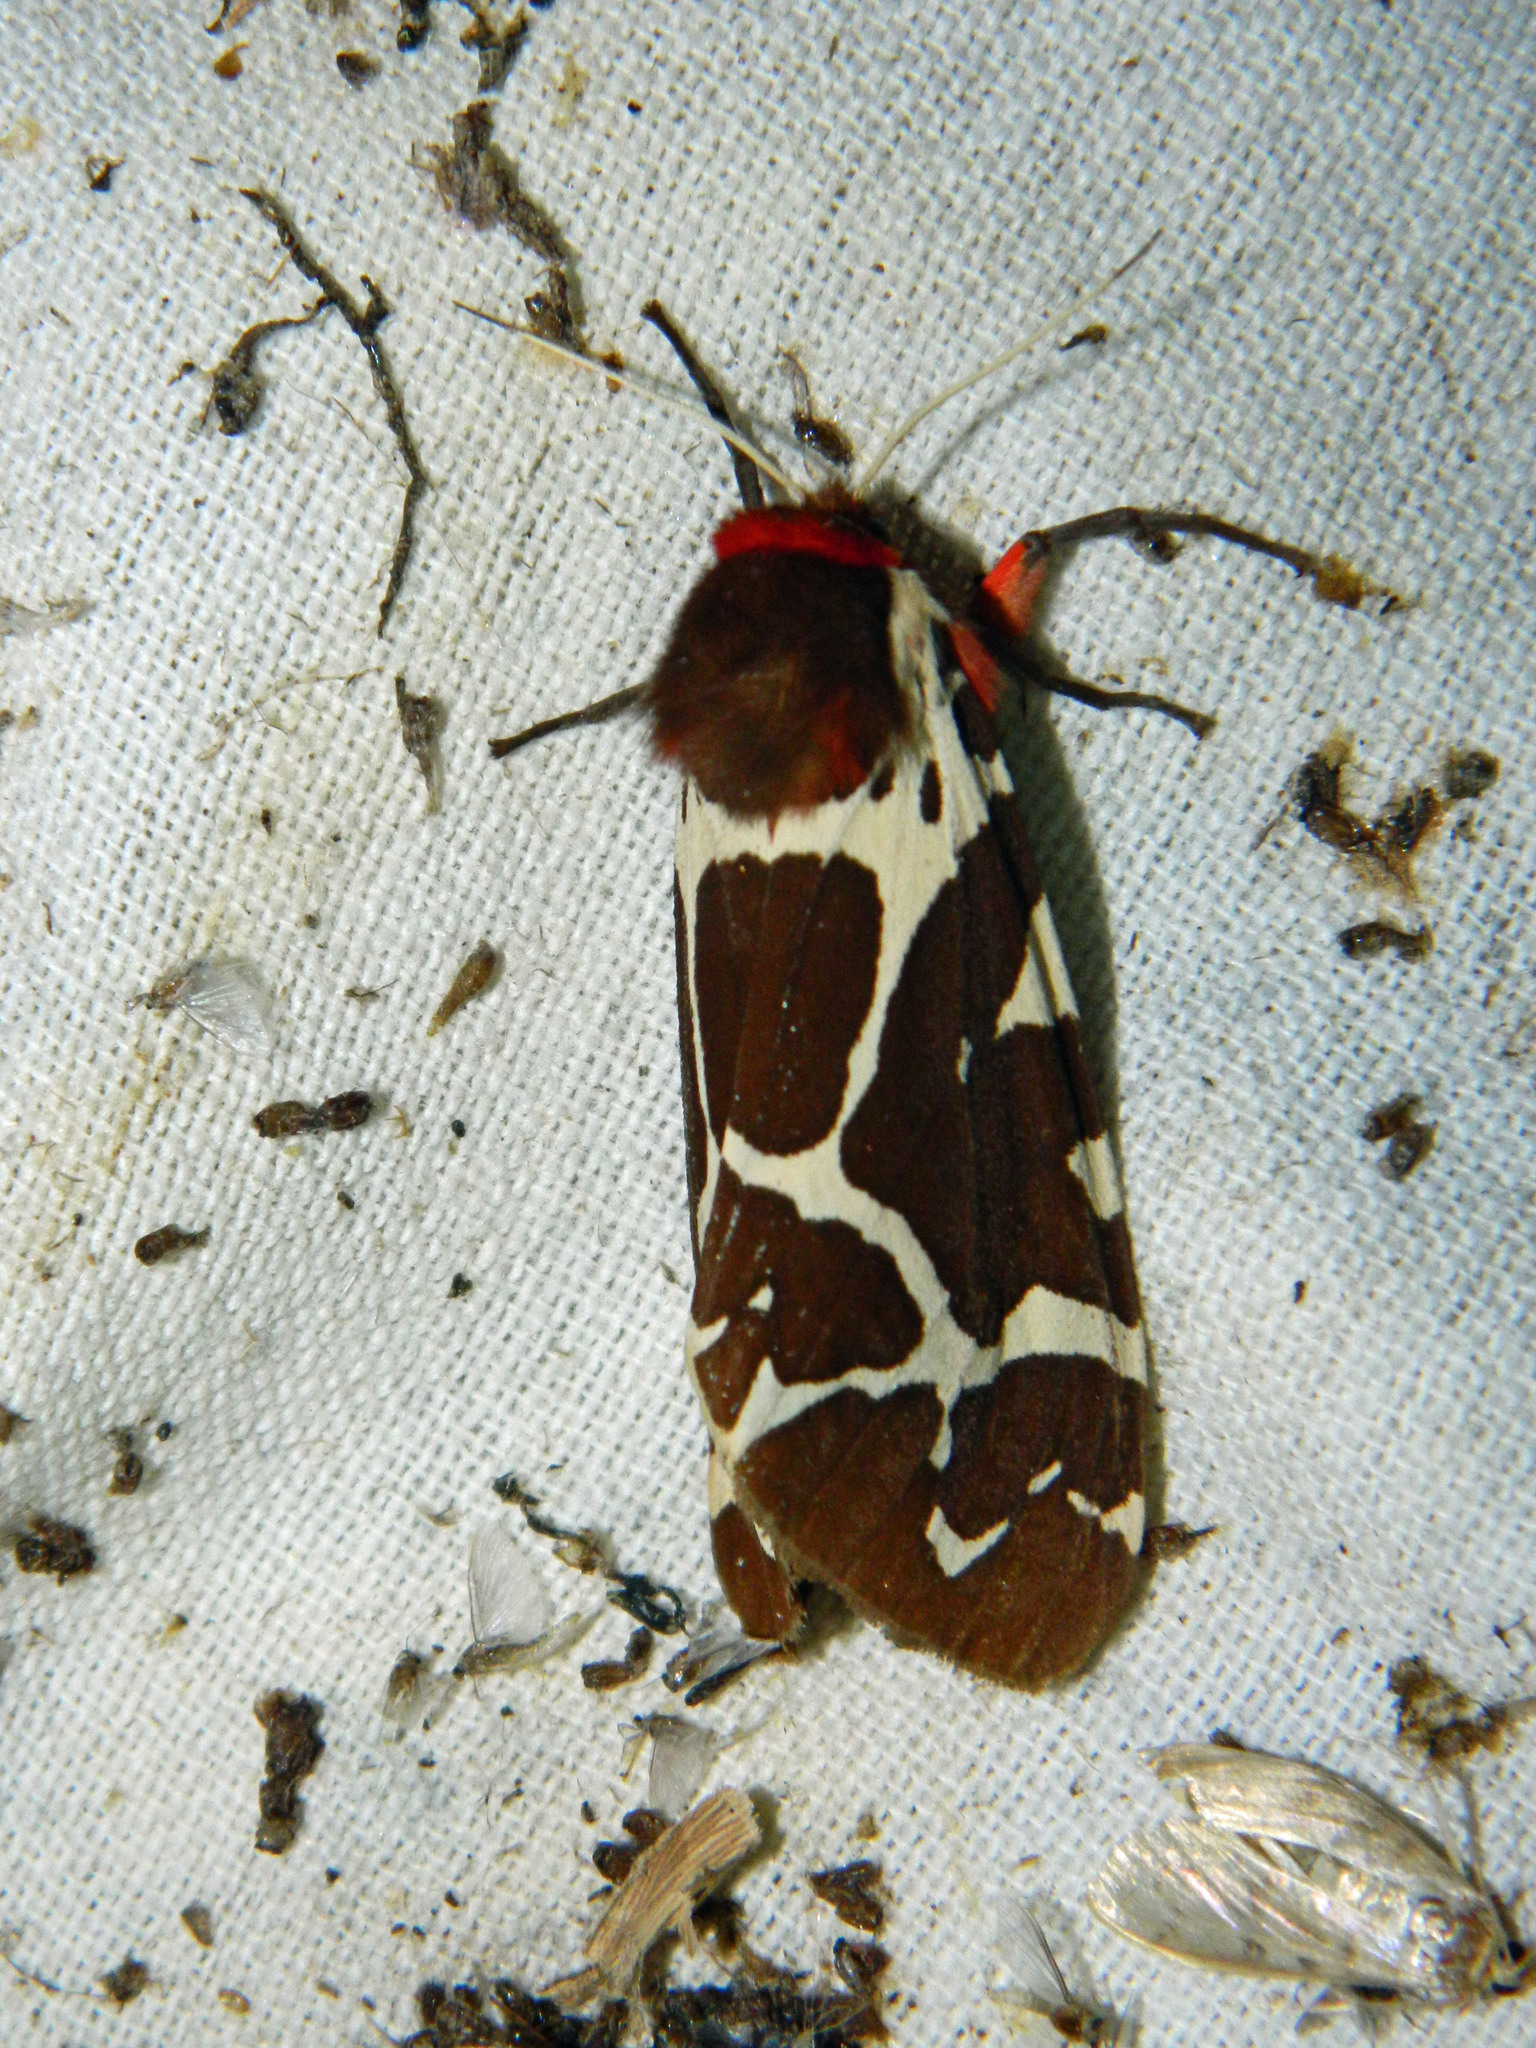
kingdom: Animalia
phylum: Arthropoda
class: Insecta
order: Lepidoptera
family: Erebidae
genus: Arctia
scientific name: Arctia caja
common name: Garden tiger
